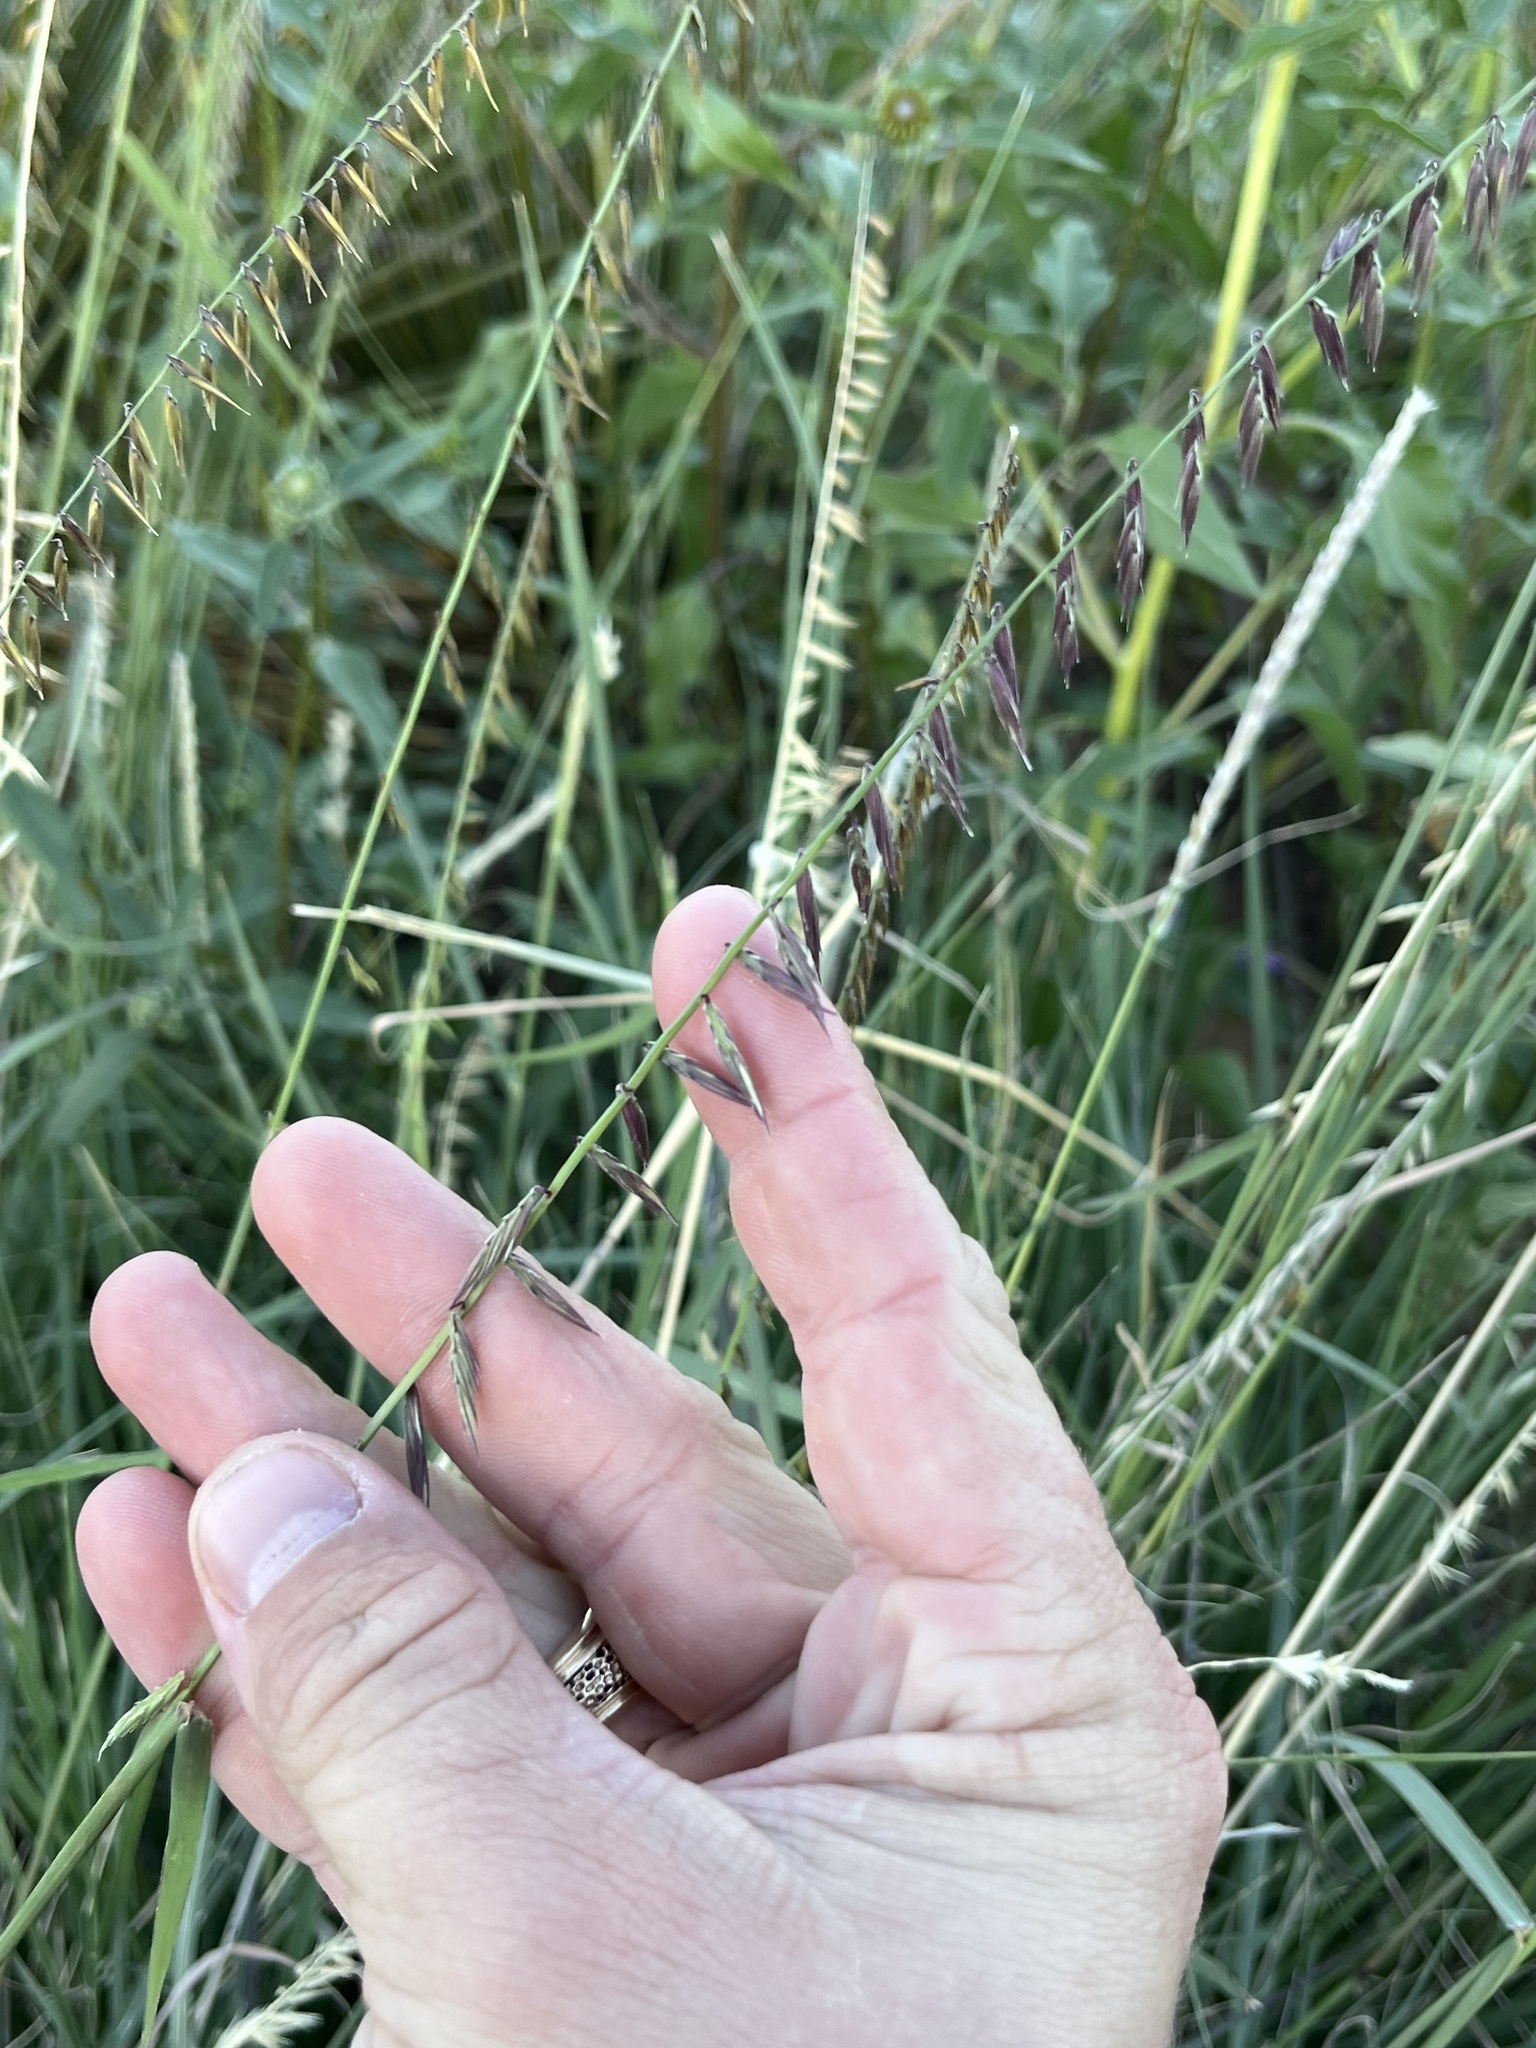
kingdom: Plantae
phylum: Tracheophyta
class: Liliopsida
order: Poales
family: Poaceae
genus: Bouteloua
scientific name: Bouteloua curtipendula
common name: Side-oats grama
